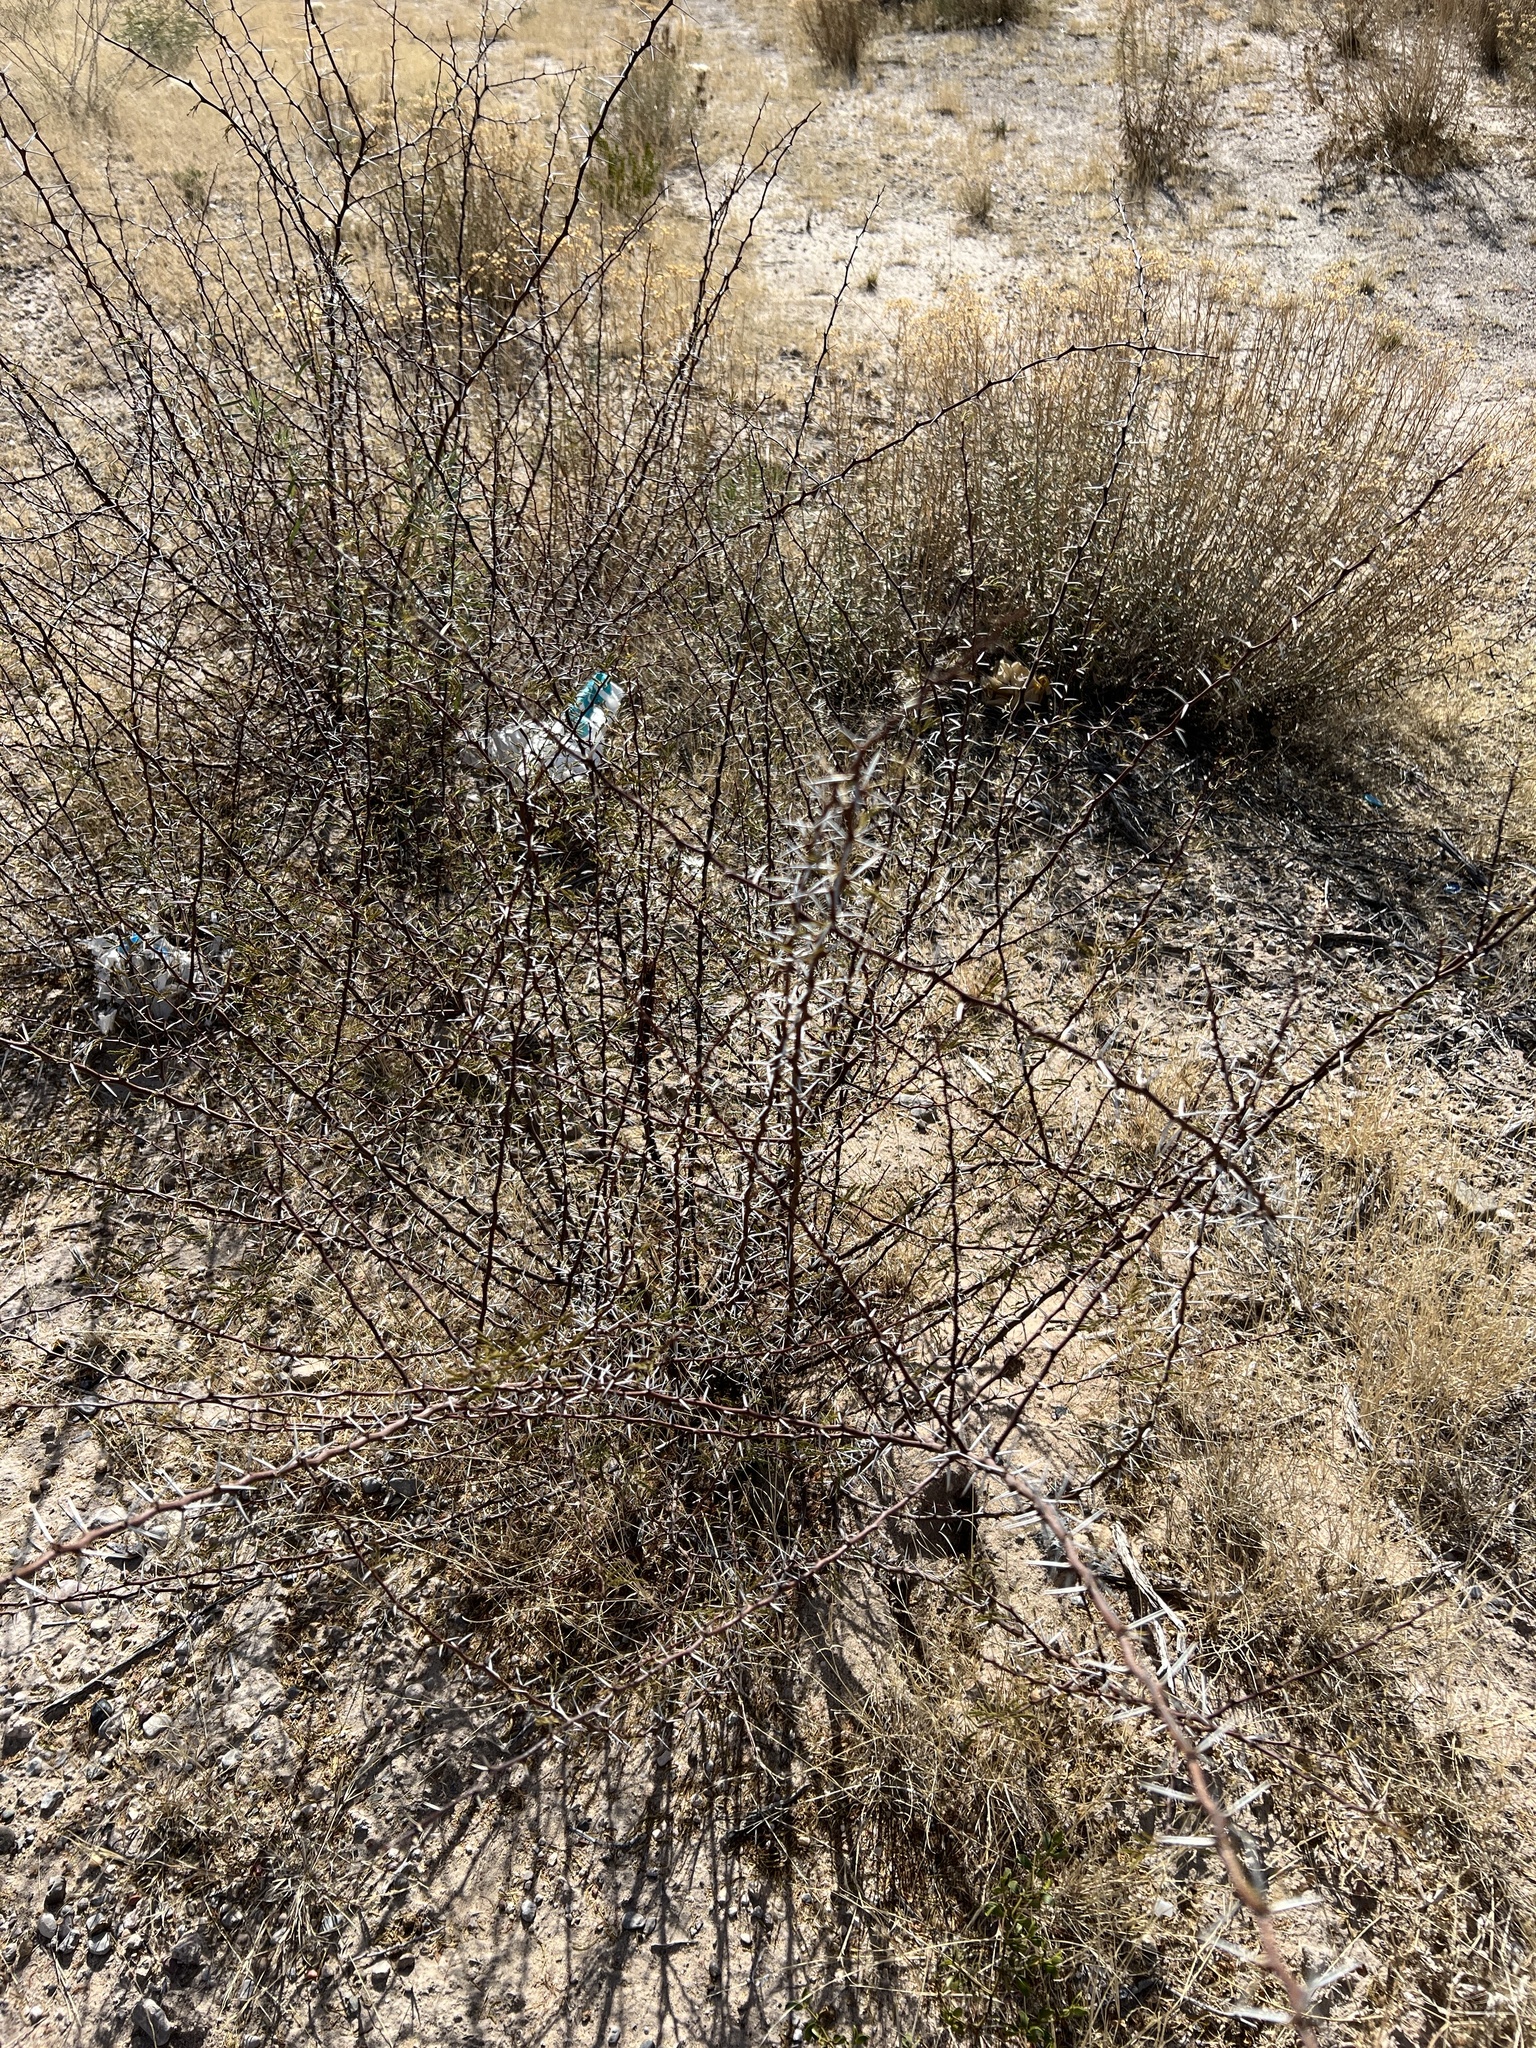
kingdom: Plantae
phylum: Tracheophyta
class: Magnoliopsida
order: Fabales
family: Fabaceae
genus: Vachellia
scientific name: Vachellia vernicosa
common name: Viscid acacia
